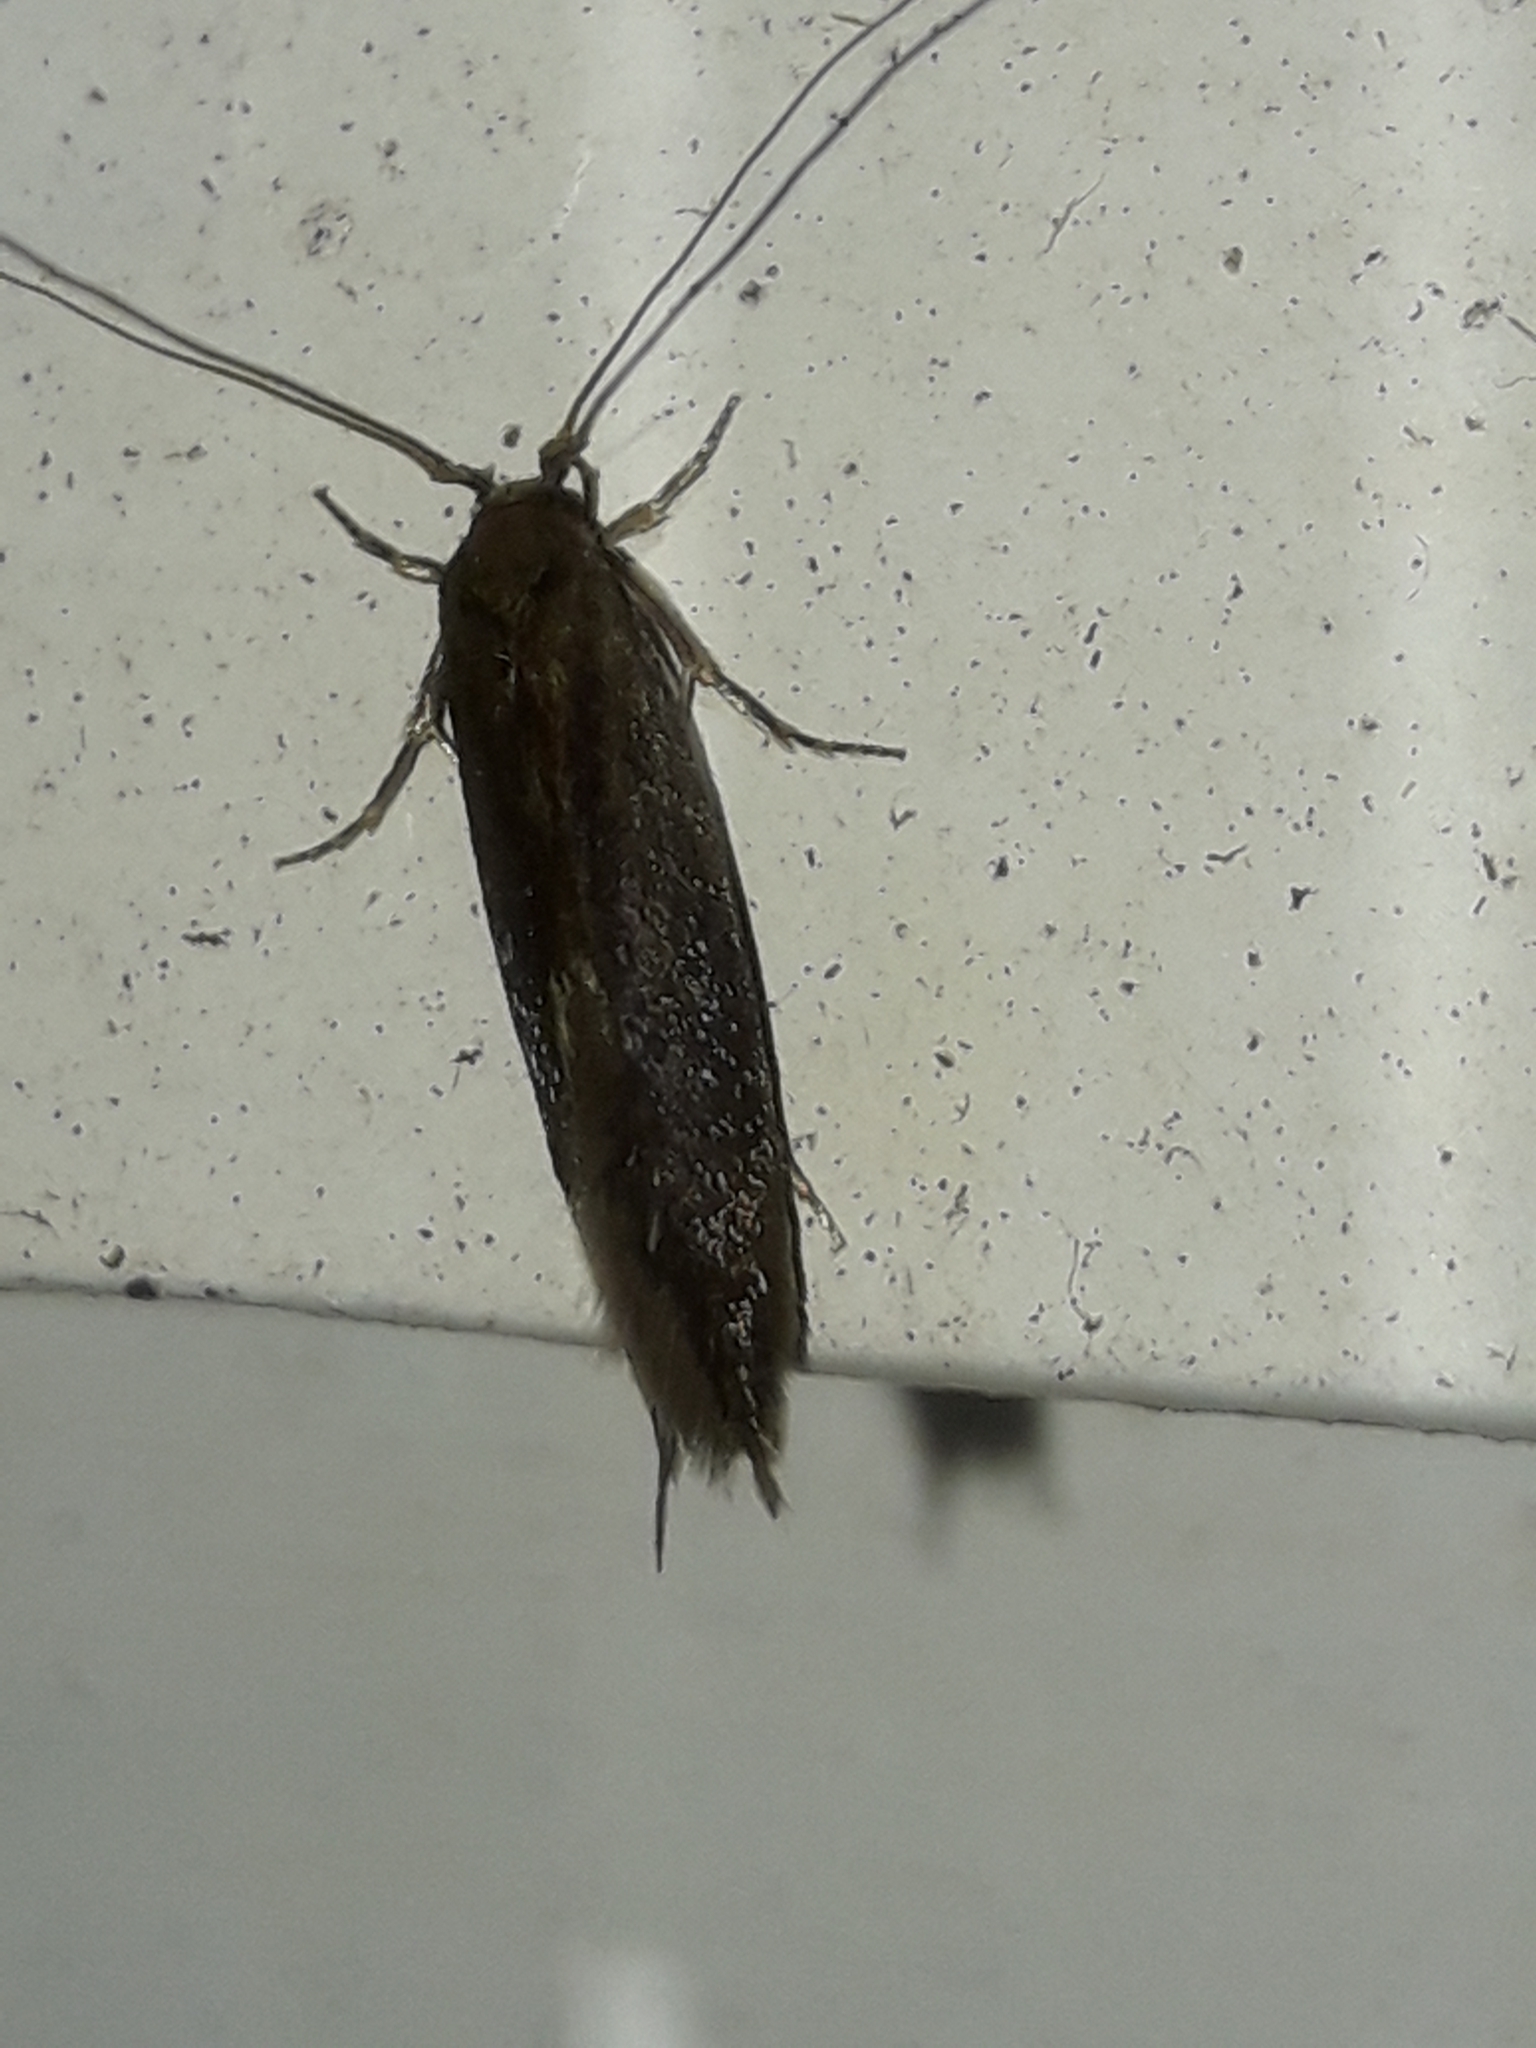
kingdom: Animalia
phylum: Arthropoda
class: Insecta
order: Lepidoptera
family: Tineidae
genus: Opogona
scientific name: Opogona omoscopa
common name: Moth
